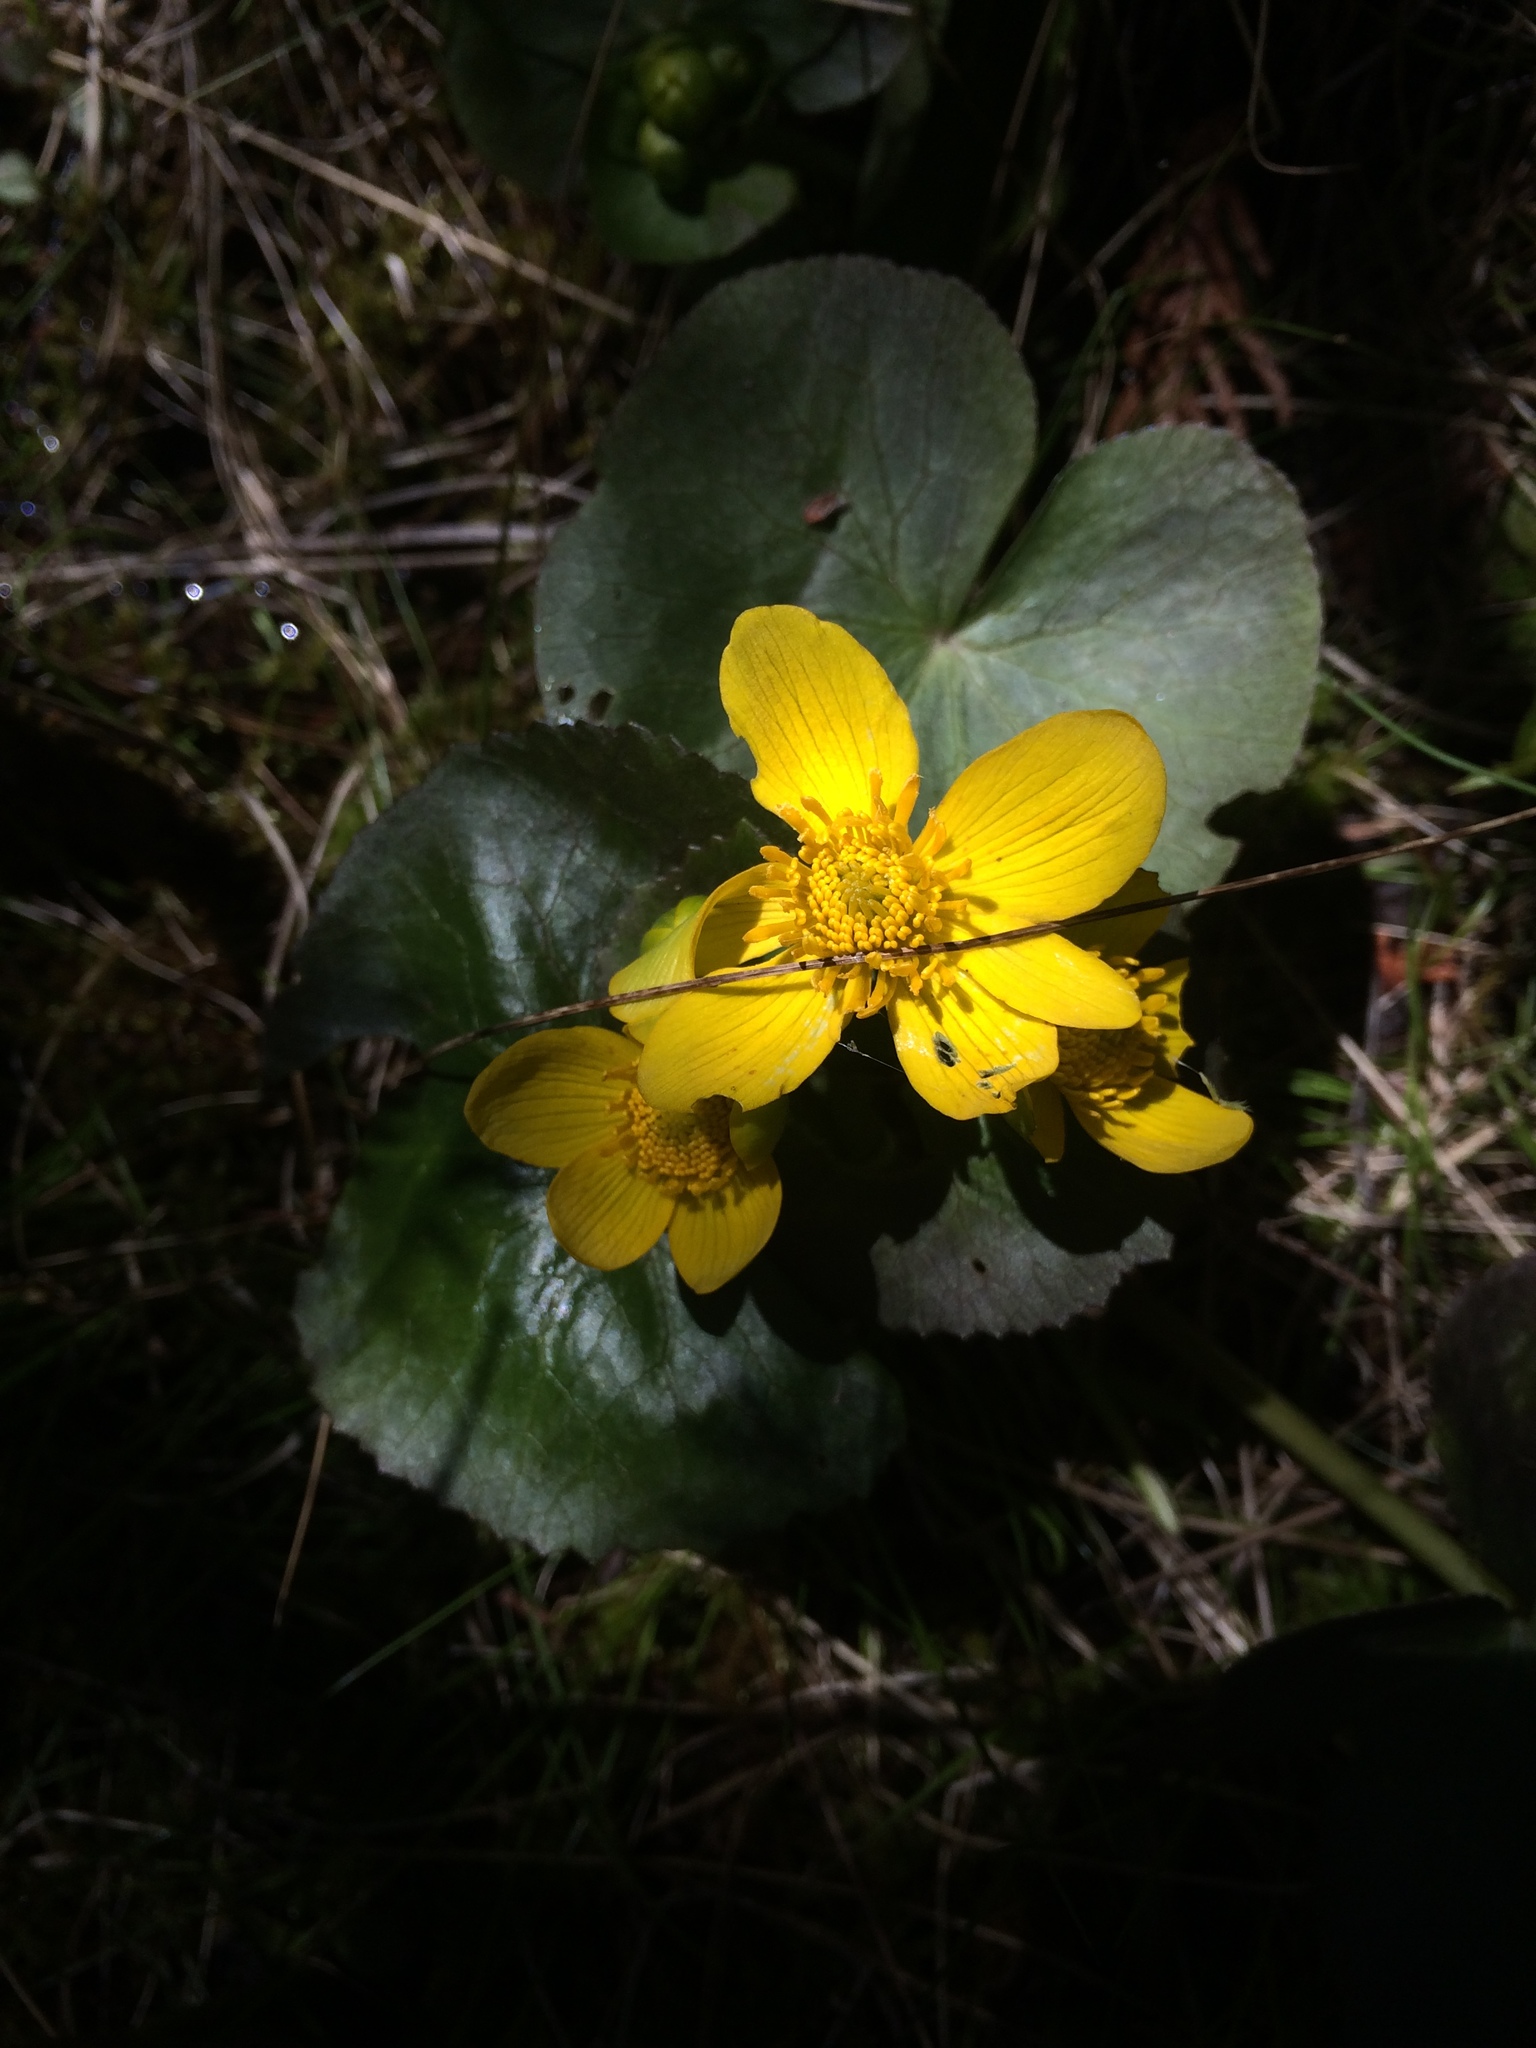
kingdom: Plantae
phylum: Tracheophyta
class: Magnoliopsida
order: Ranunculales
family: Ranunculaceae
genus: Caltha
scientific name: Caltha palustris
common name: Marsh marigold
